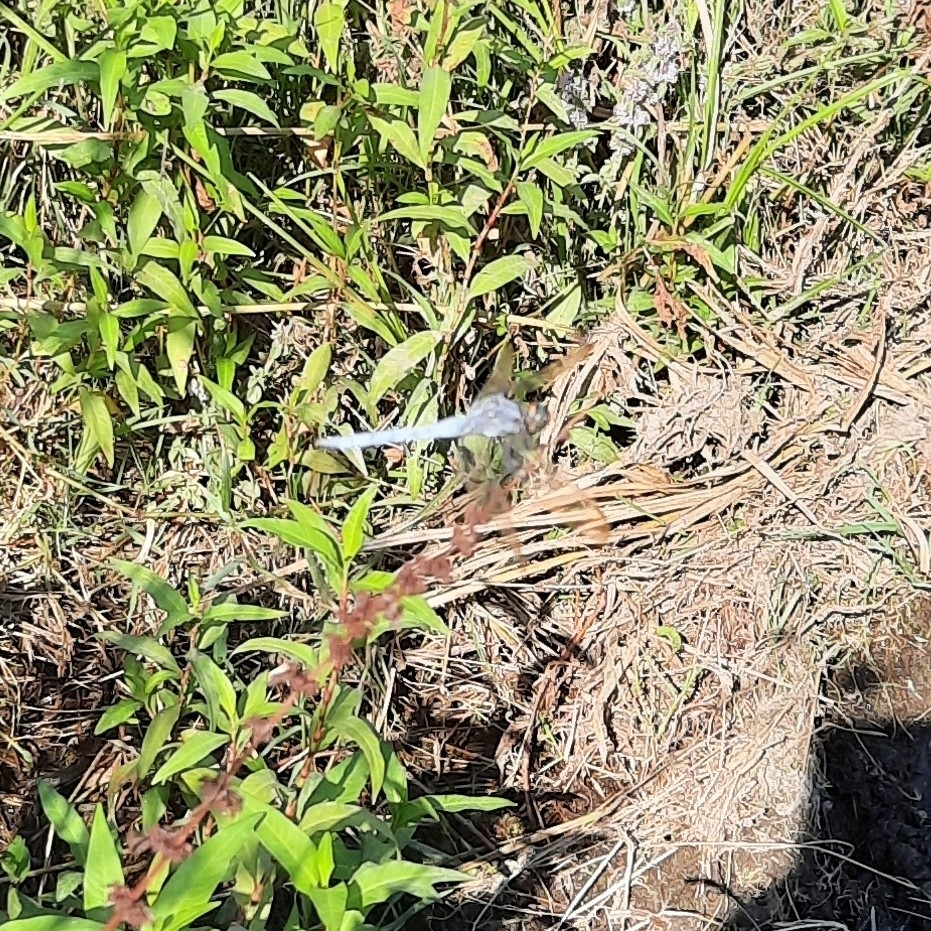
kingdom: Animalia
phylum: Arthropoda
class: Insecta
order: Odonata
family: Libellulidae
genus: Orthetrum
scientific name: Orthetrum coerulescens
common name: Keeled skimmer
